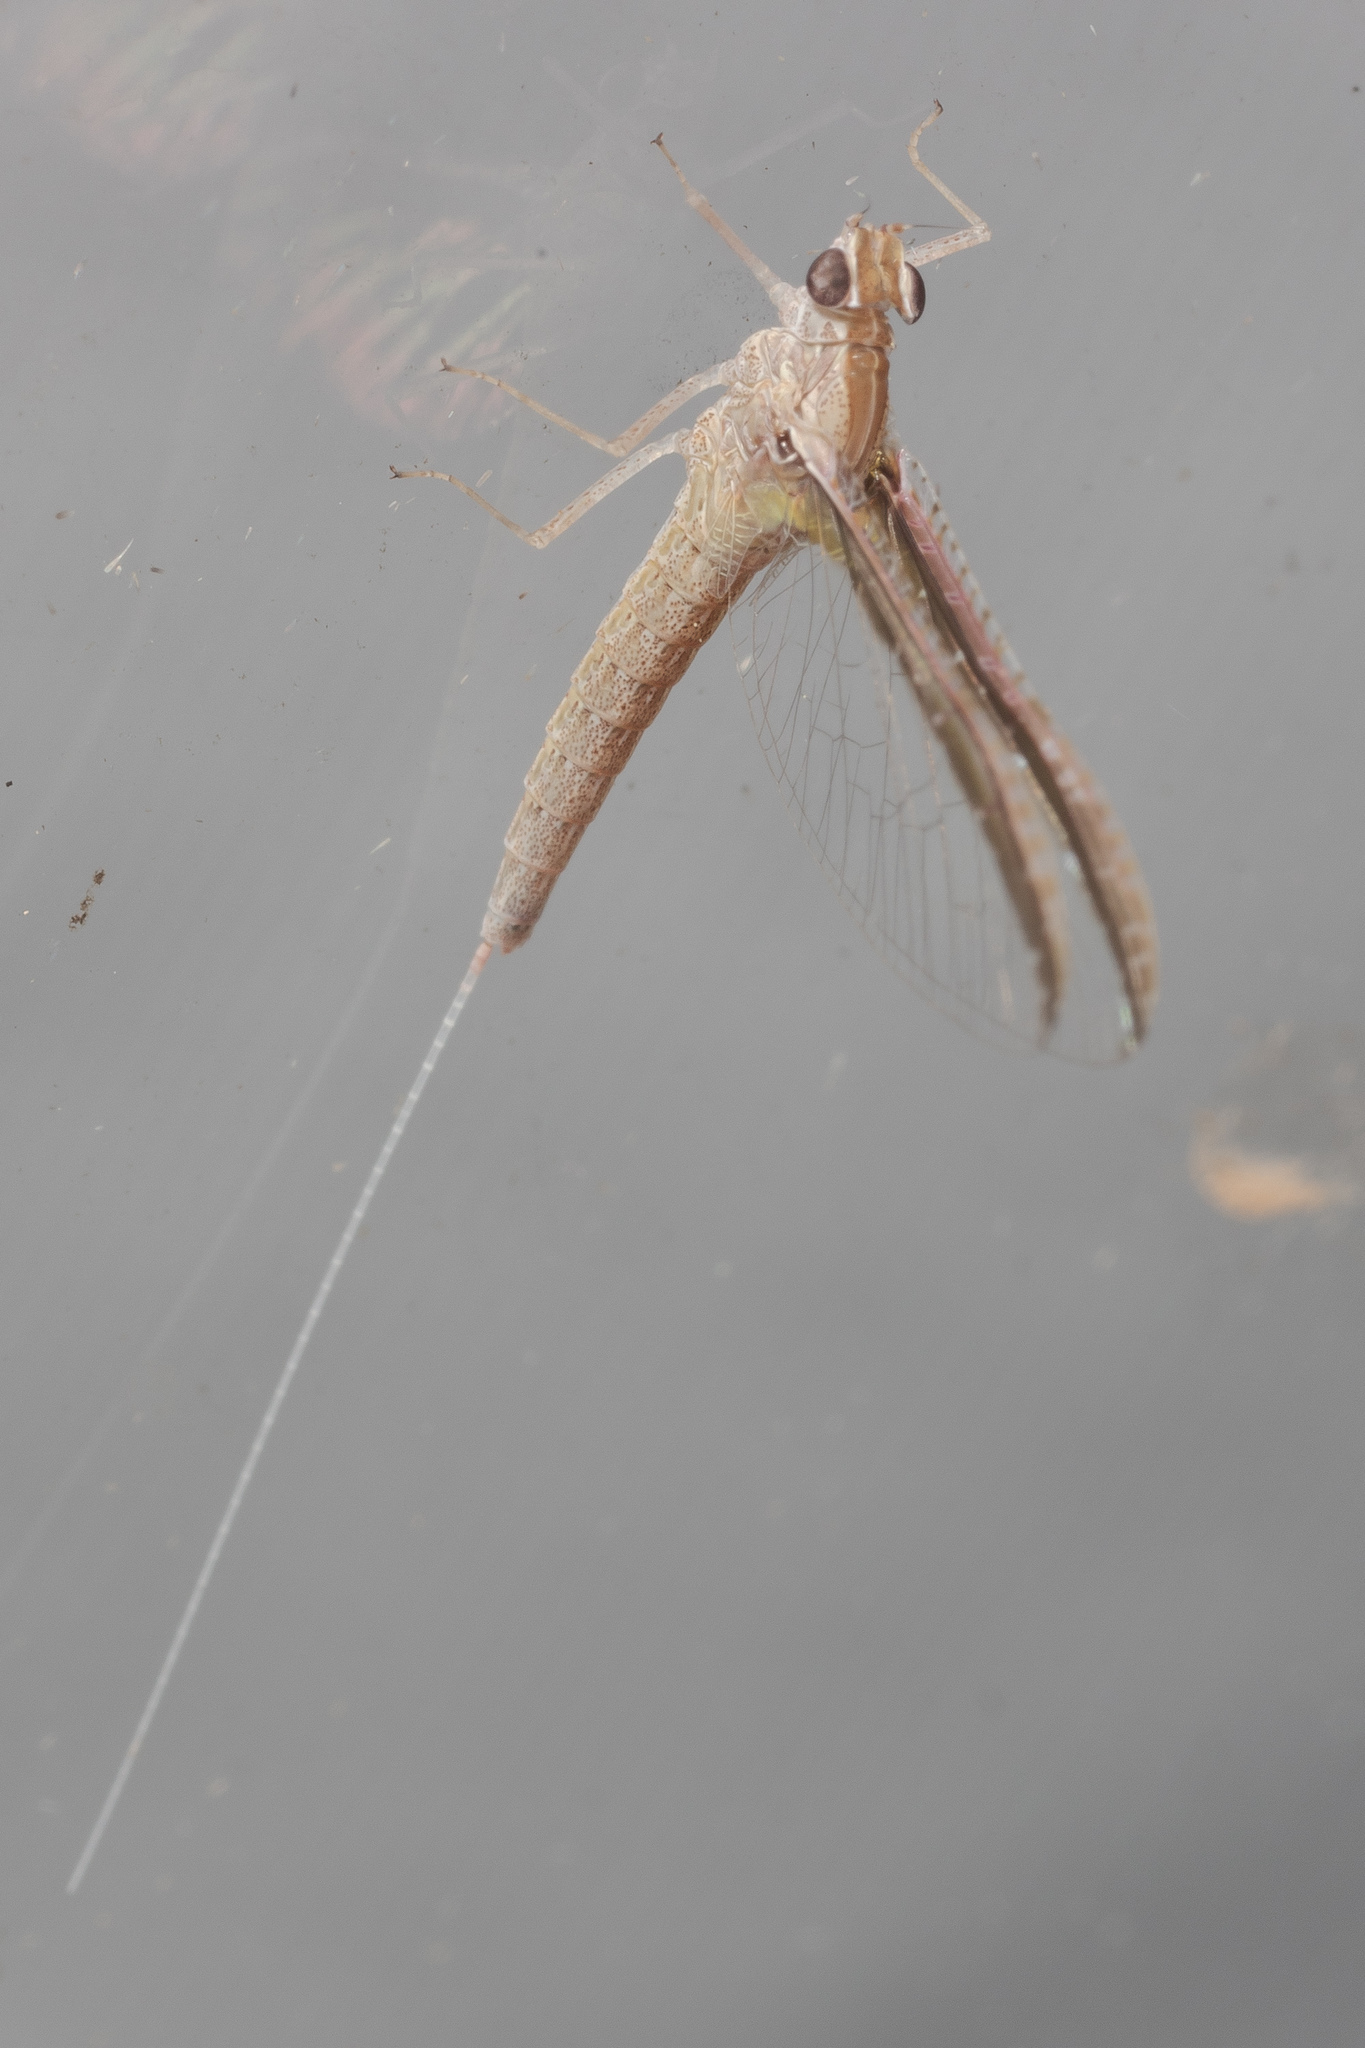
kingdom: Animalia
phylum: Arthropoda
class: Insecta
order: Ephemeroptera
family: Baetidae
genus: Callibaetis
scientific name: Callibaetis floridanus
